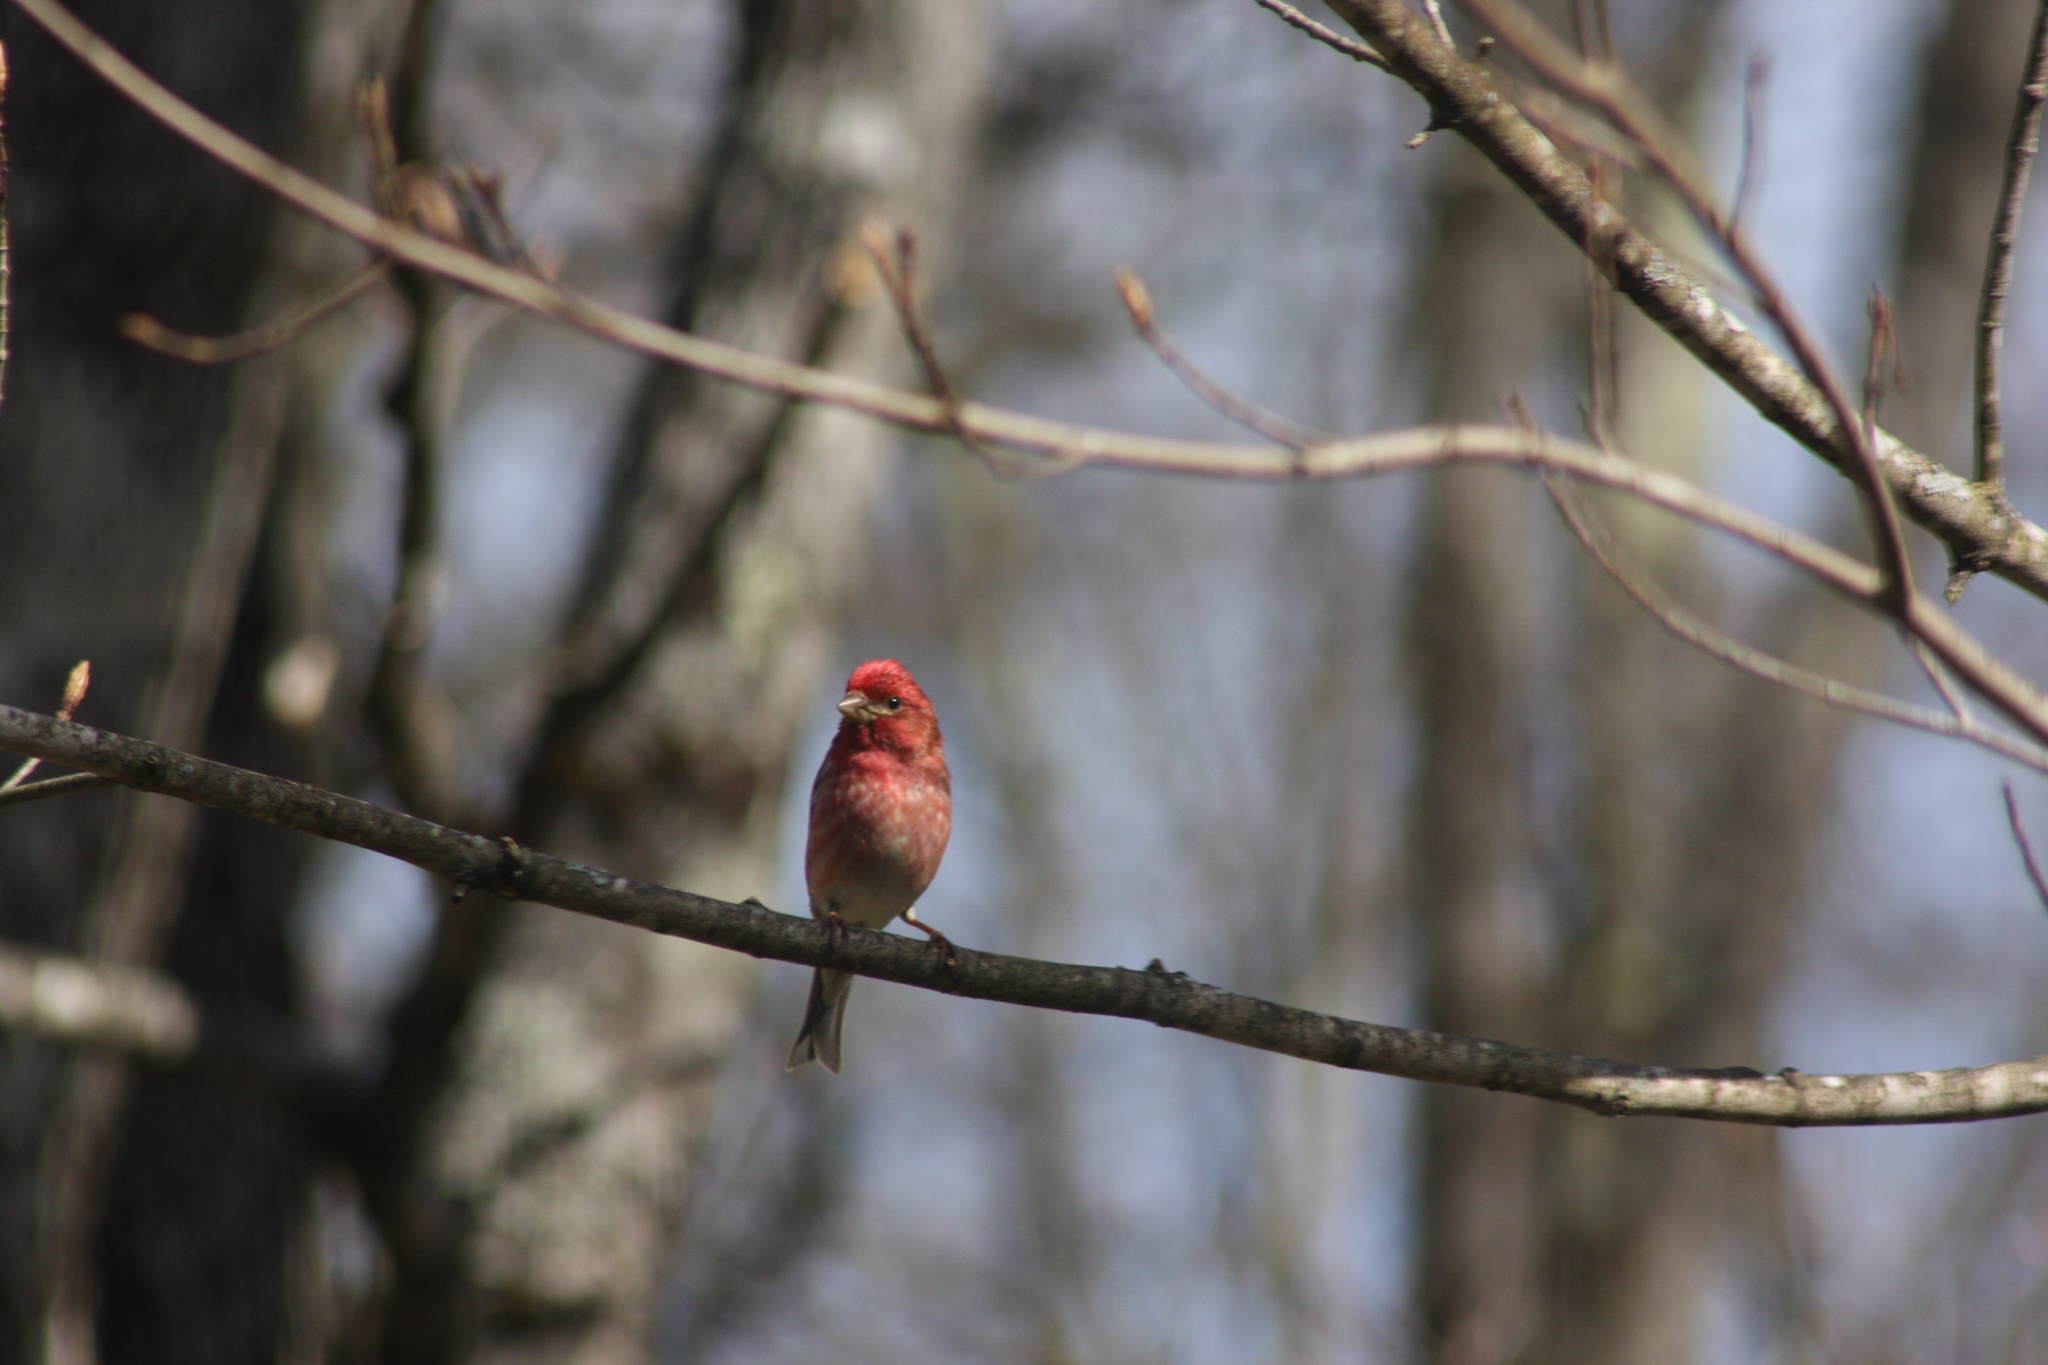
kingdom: Animalia
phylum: Chordata
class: Aves
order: Passeriformes
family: Fringillidae
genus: Haemorhous
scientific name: Haemorhous purpureus
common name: Purple finch
